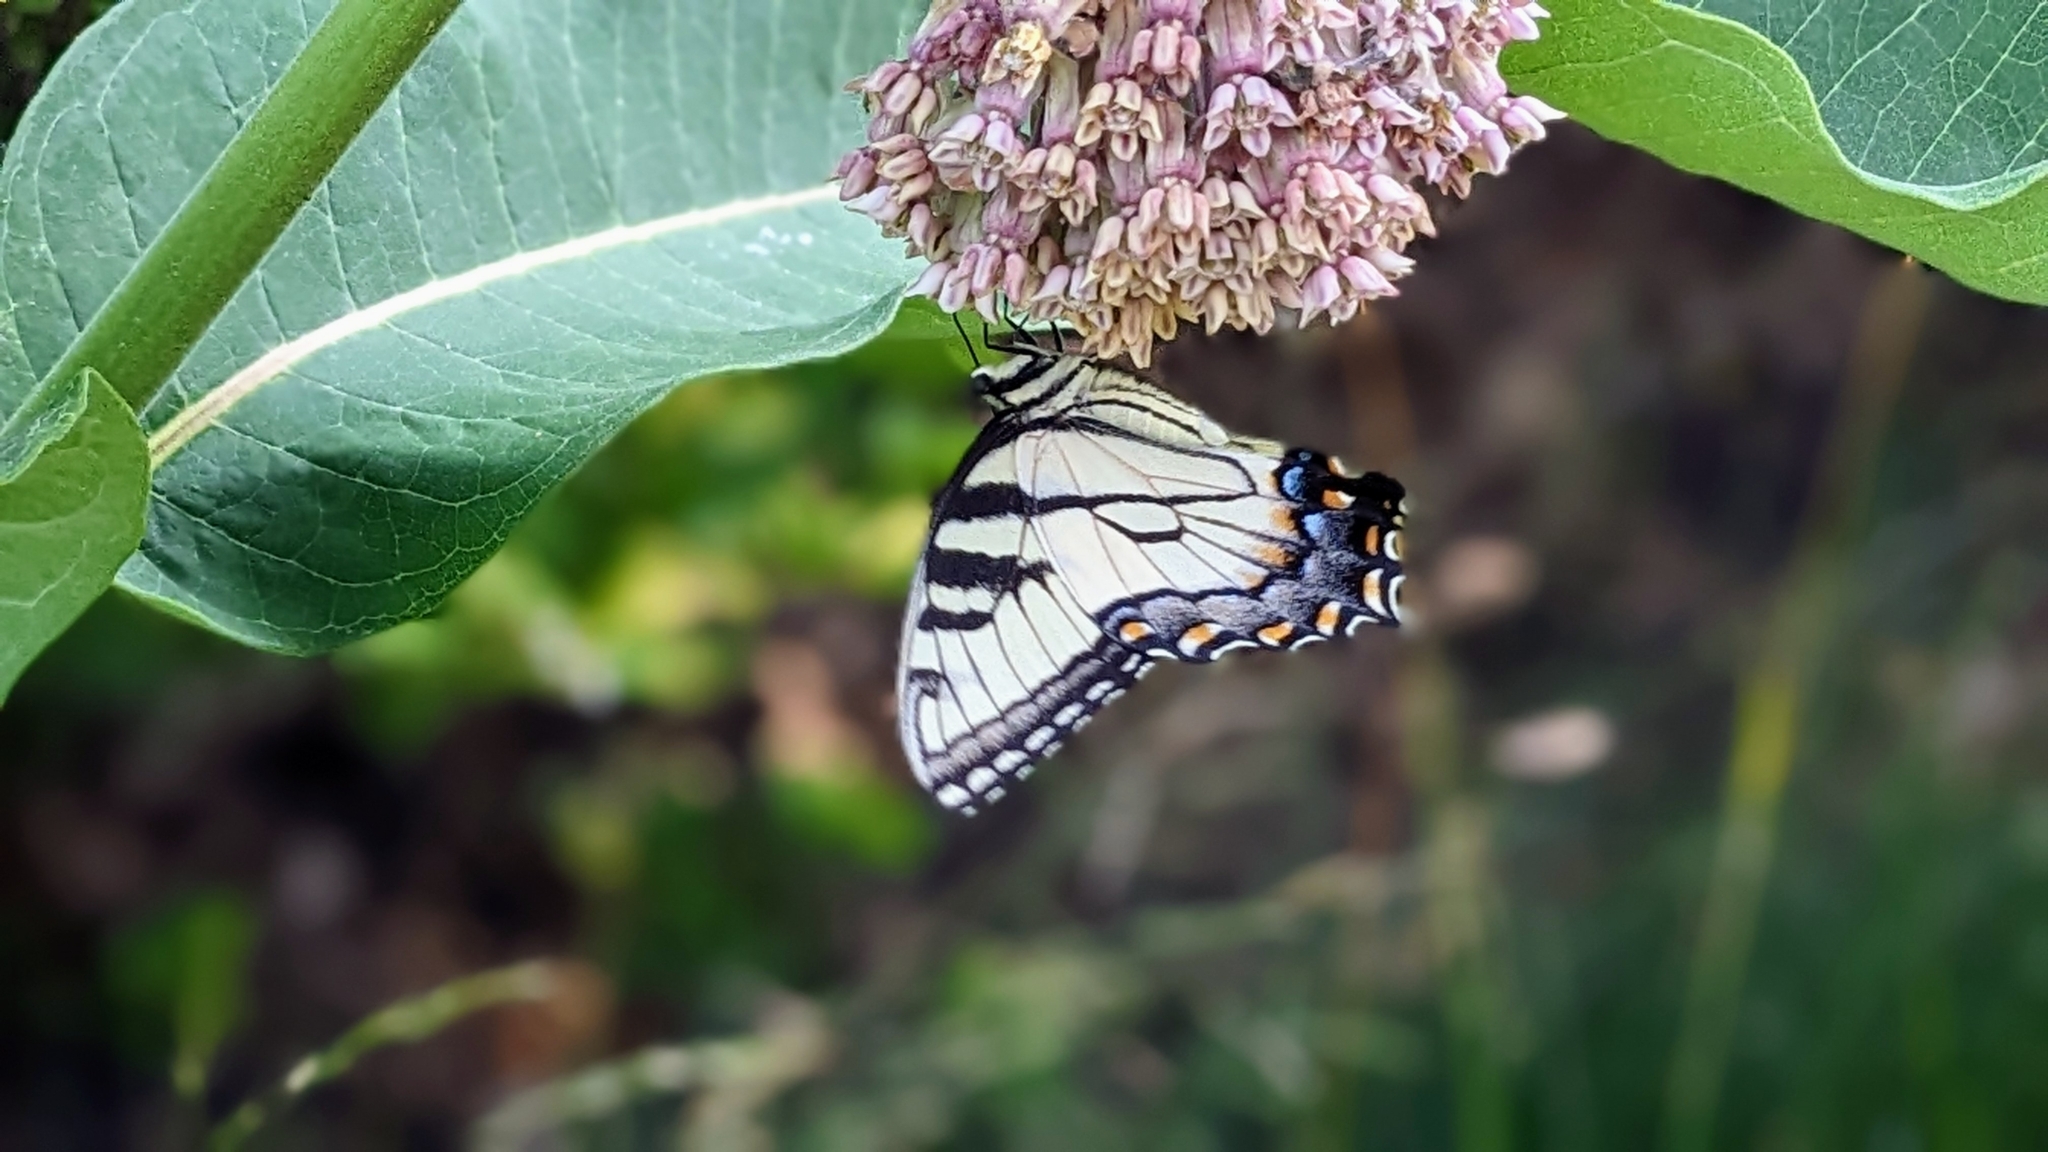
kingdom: Animalia
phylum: Arthropoda
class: Insecta
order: Lepidoptera
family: Papilionidae
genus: Papilio
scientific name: Papilio glaucus
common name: Tiger swallowtail
